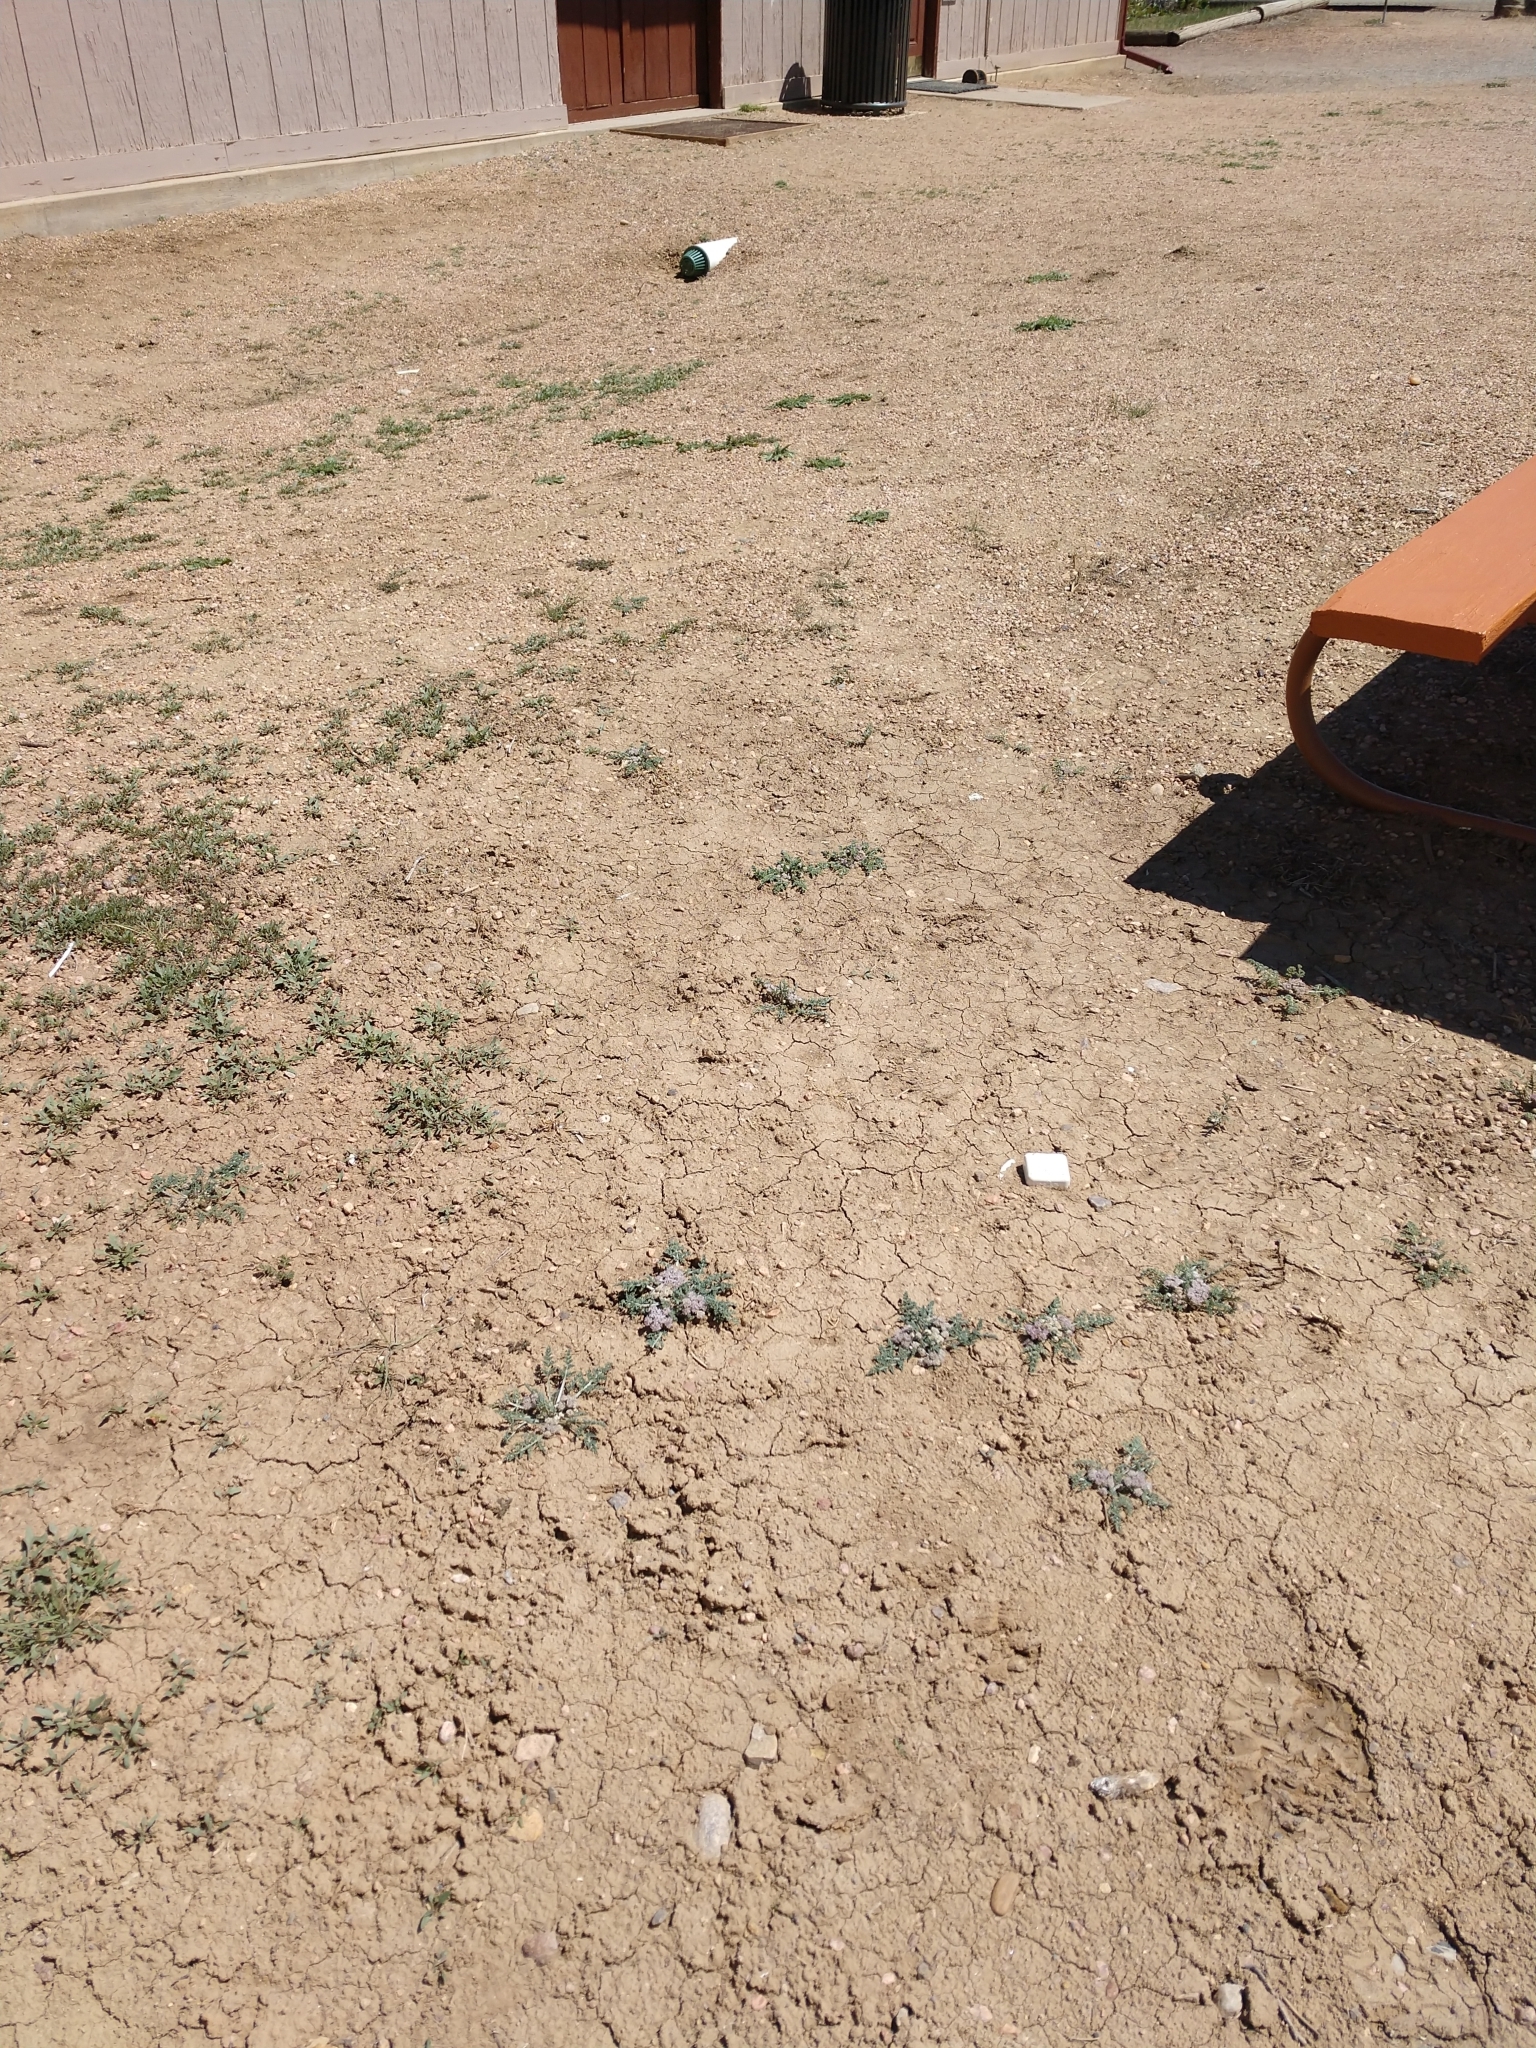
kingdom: Plantae
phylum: Tracheophyta
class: Magnoliopsida
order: Apiales
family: Apiaceae
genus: Vesper
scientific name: Vesper montanus
